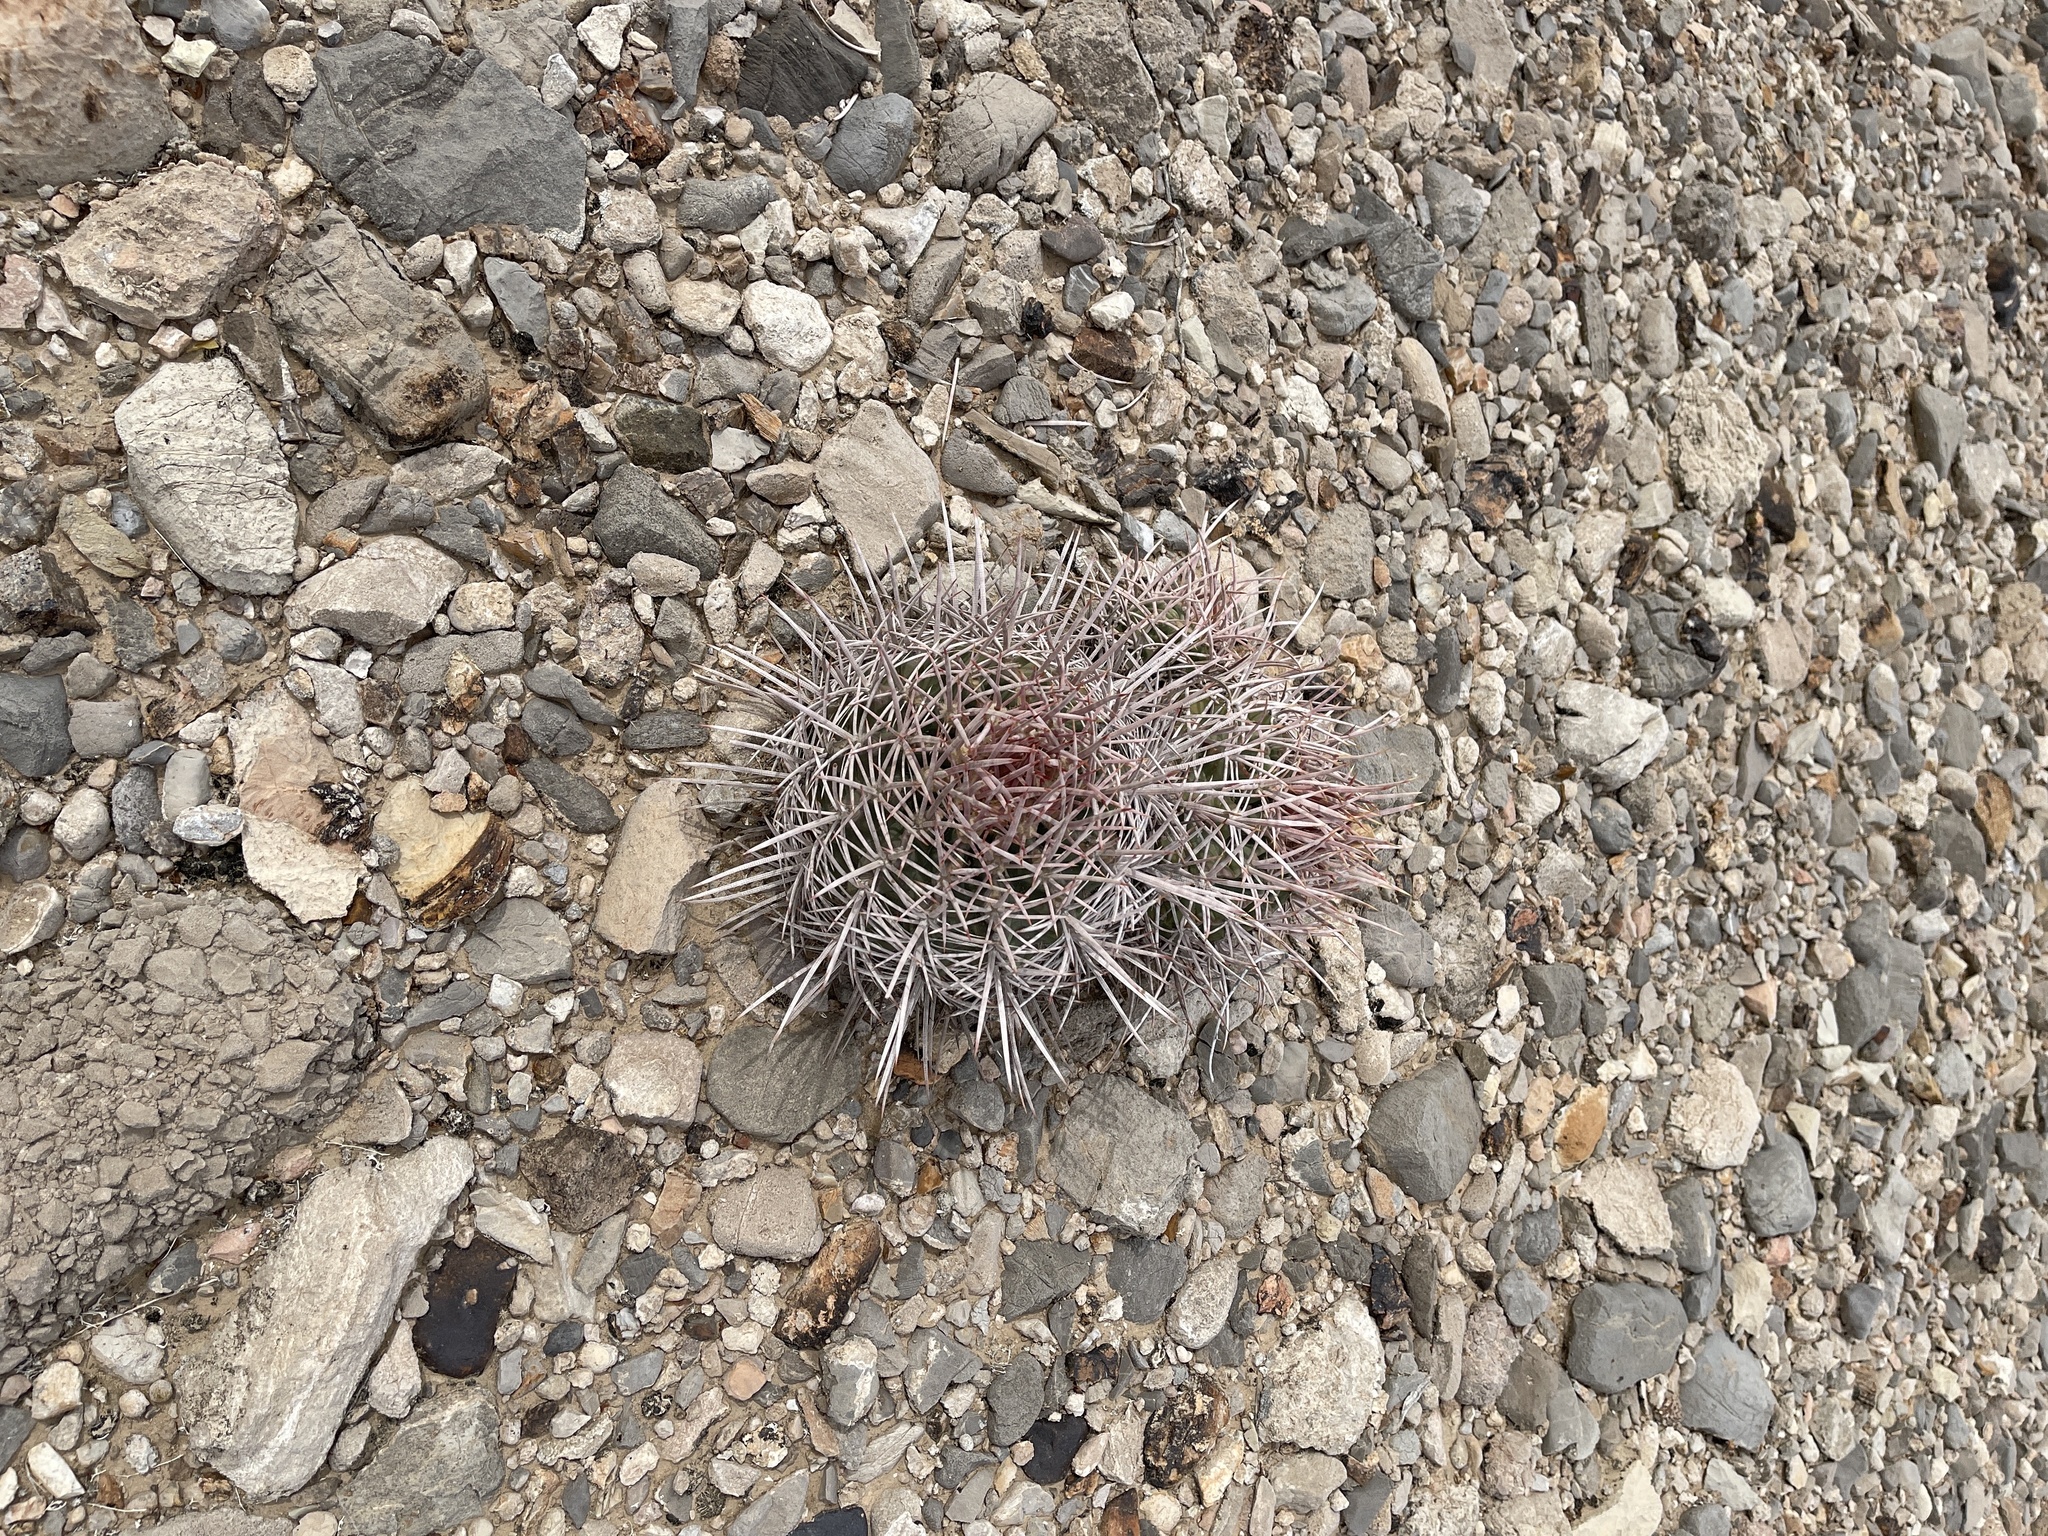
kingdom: Plantae
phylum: Tracheophyta
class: Magnoliopsida
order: Caryophyllales
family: Cactaceae
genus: Echinocactus
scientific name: Echinocactus polycephalus
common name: Cottontop cactus
